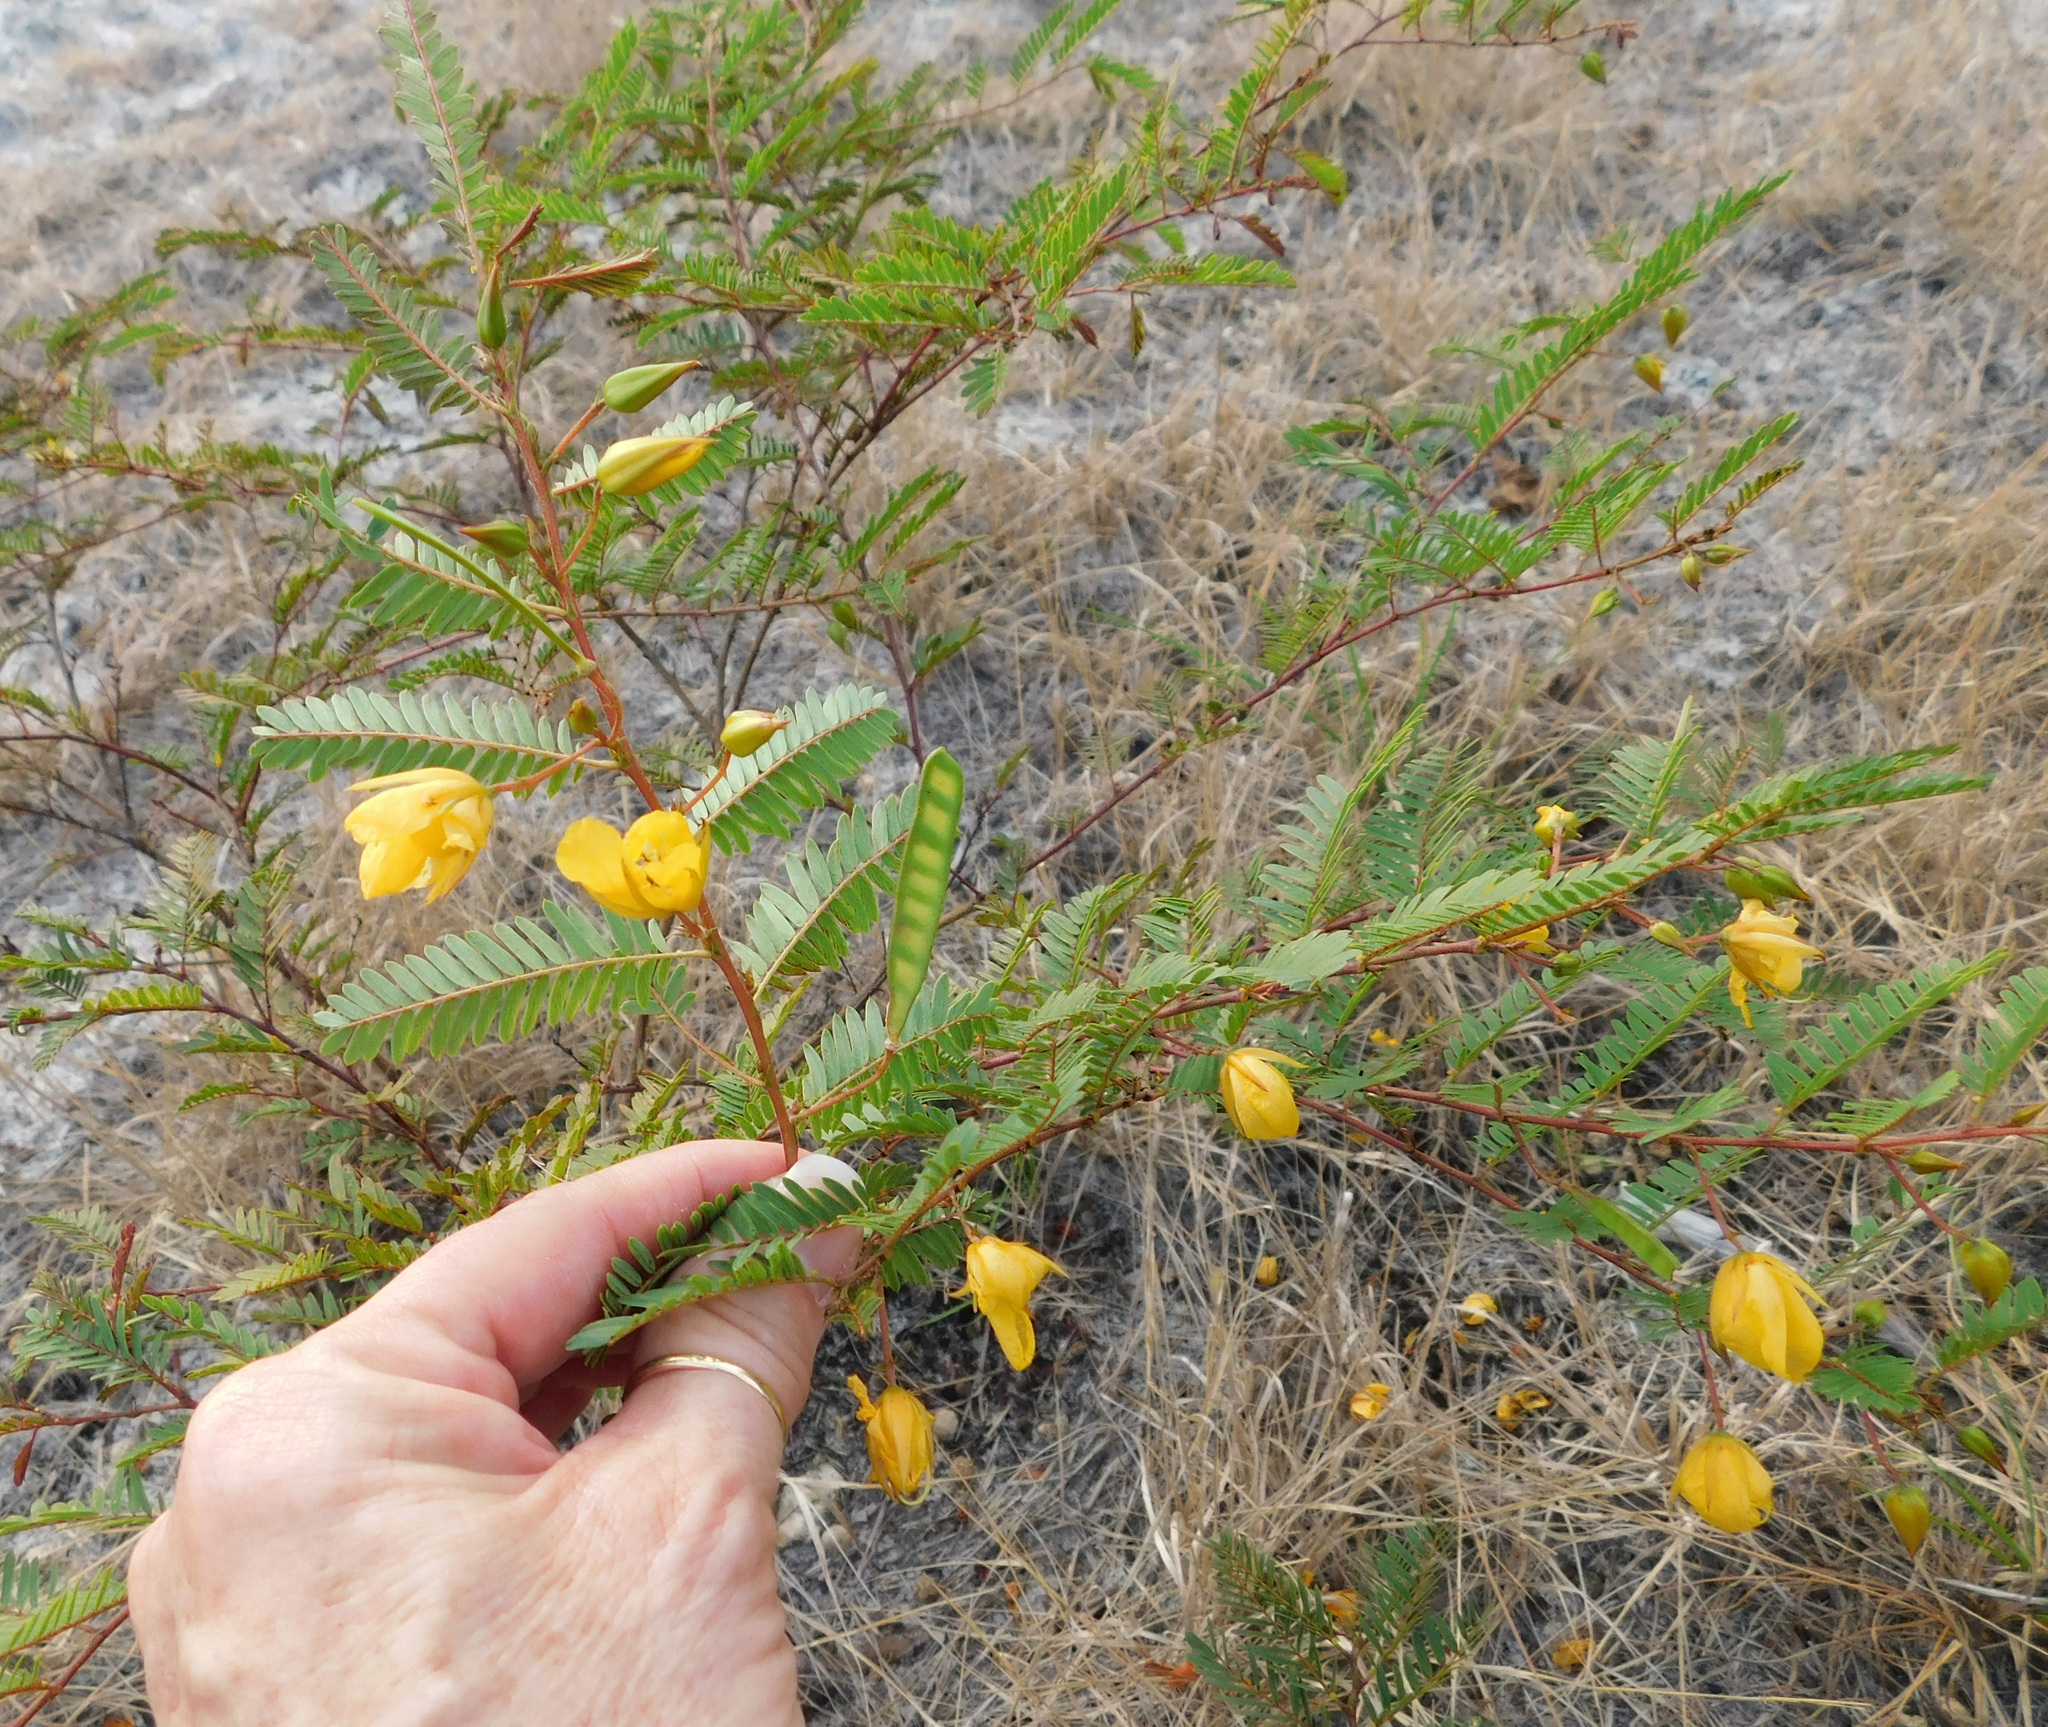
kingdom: Plantae
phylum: Tracheophyta
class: Magnoliopsida
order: Fabales
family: Fabaceae
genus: Chamaecrista
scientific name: Chamaecrista fasciculata
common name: Golden cassia
